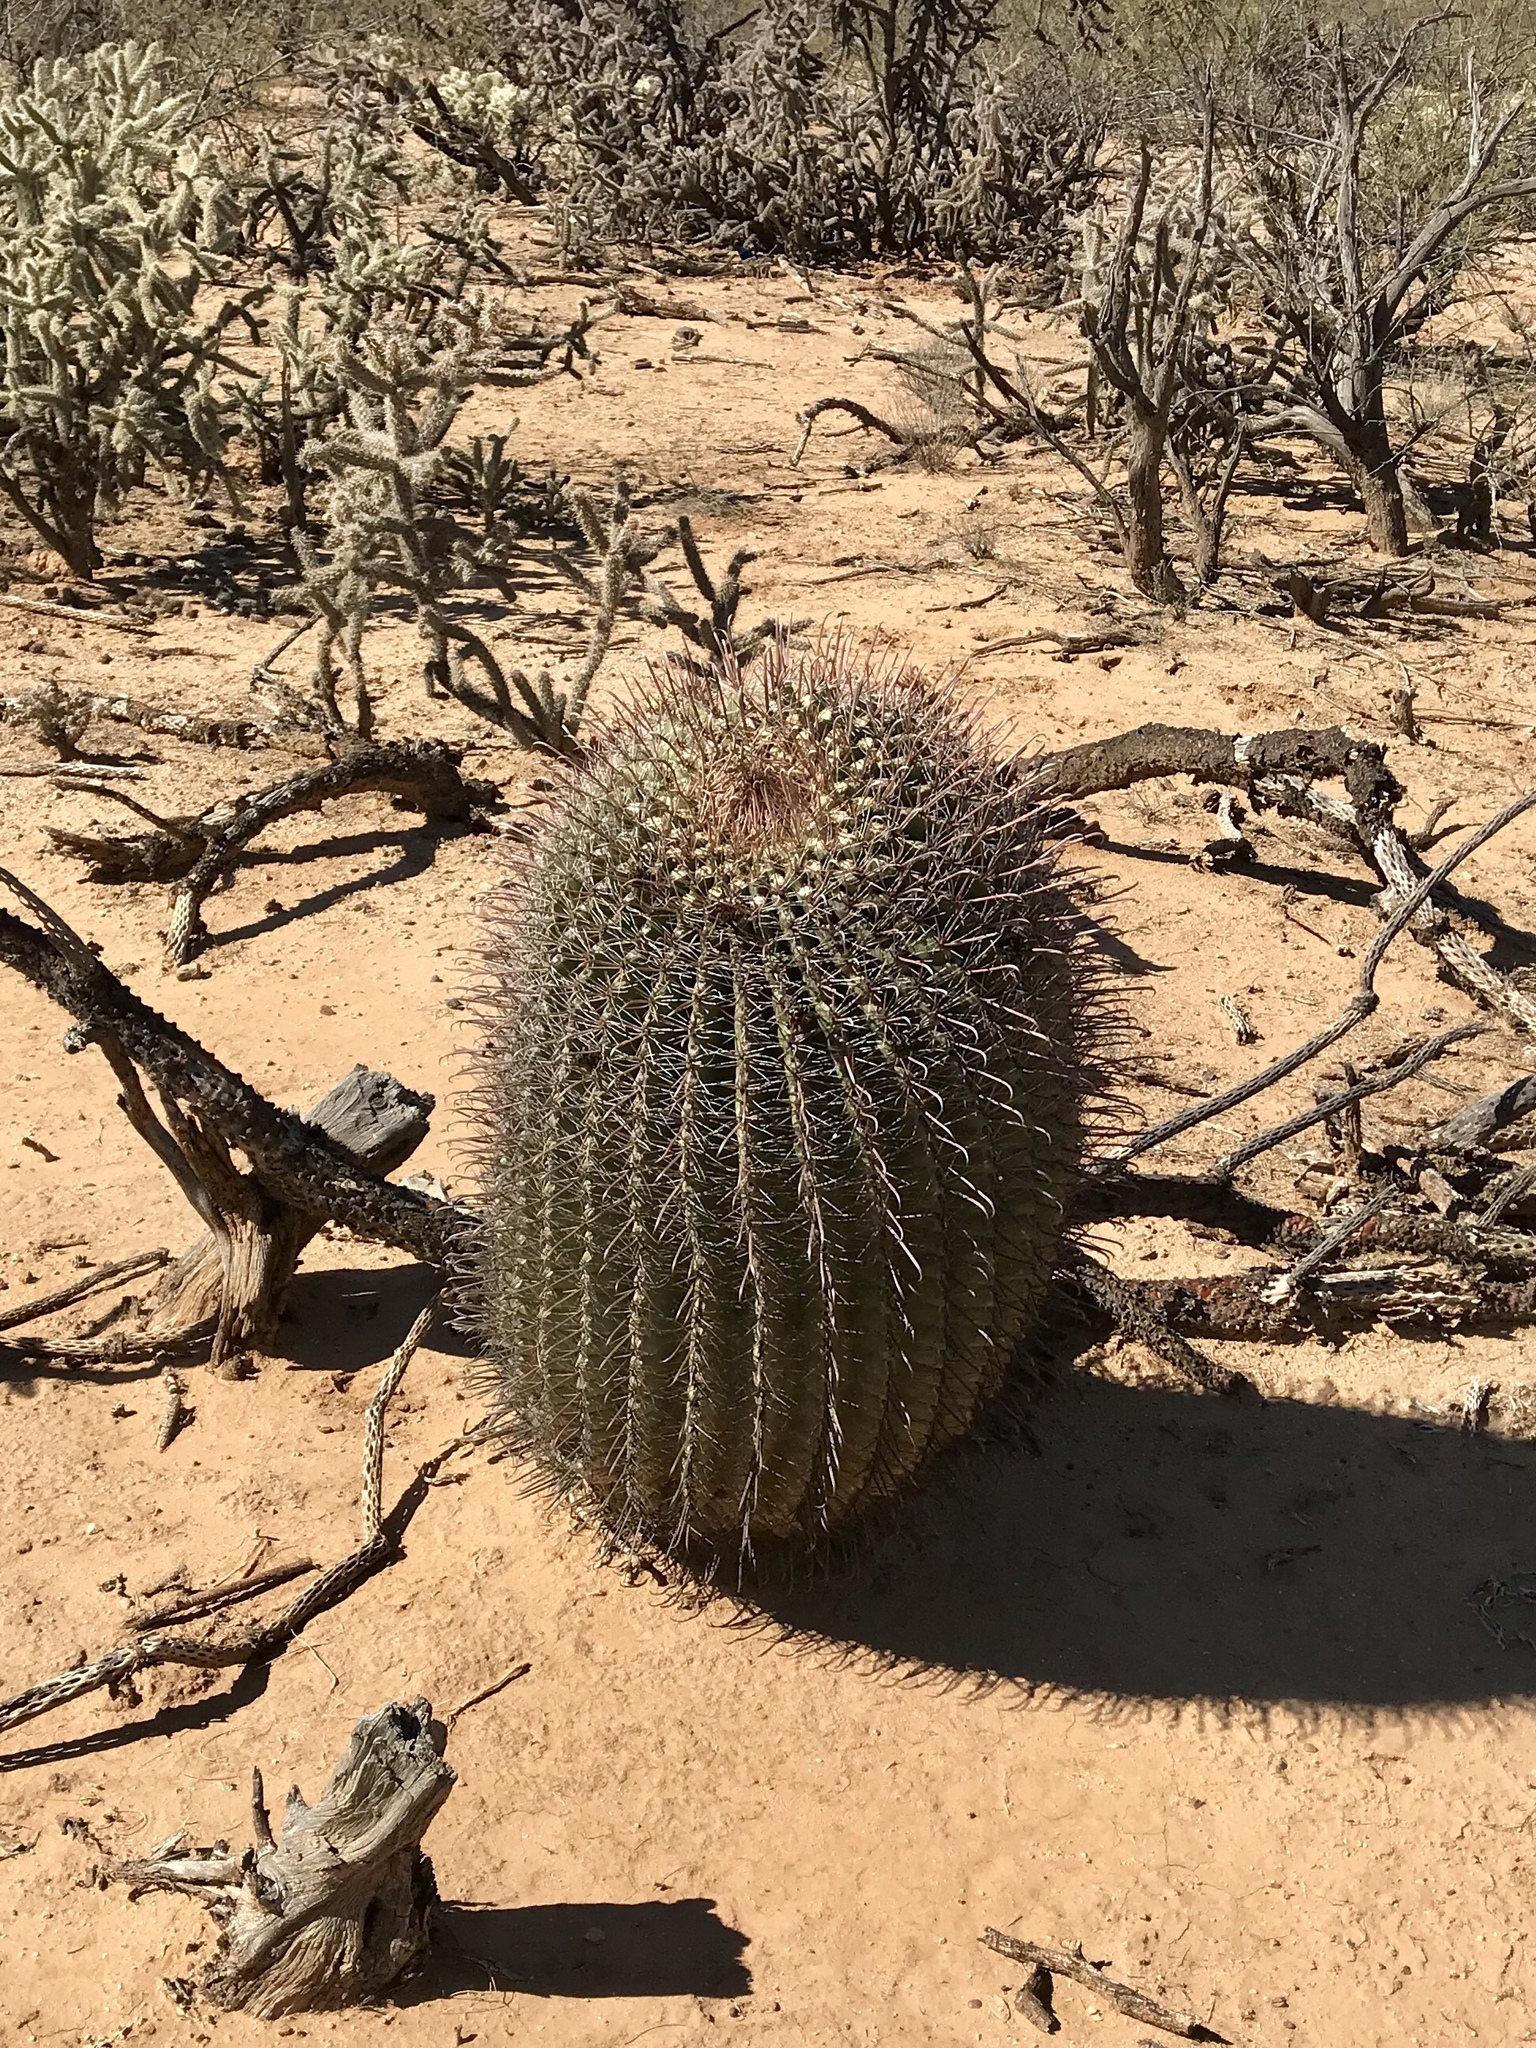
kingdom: Plantae
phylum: Tracheophyta
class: Magnoliopsida
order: Caryophyllales
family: Cactaceae
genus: Ferocactus
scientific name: Ferocactus wislizeni
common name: Candy barrel cactus
